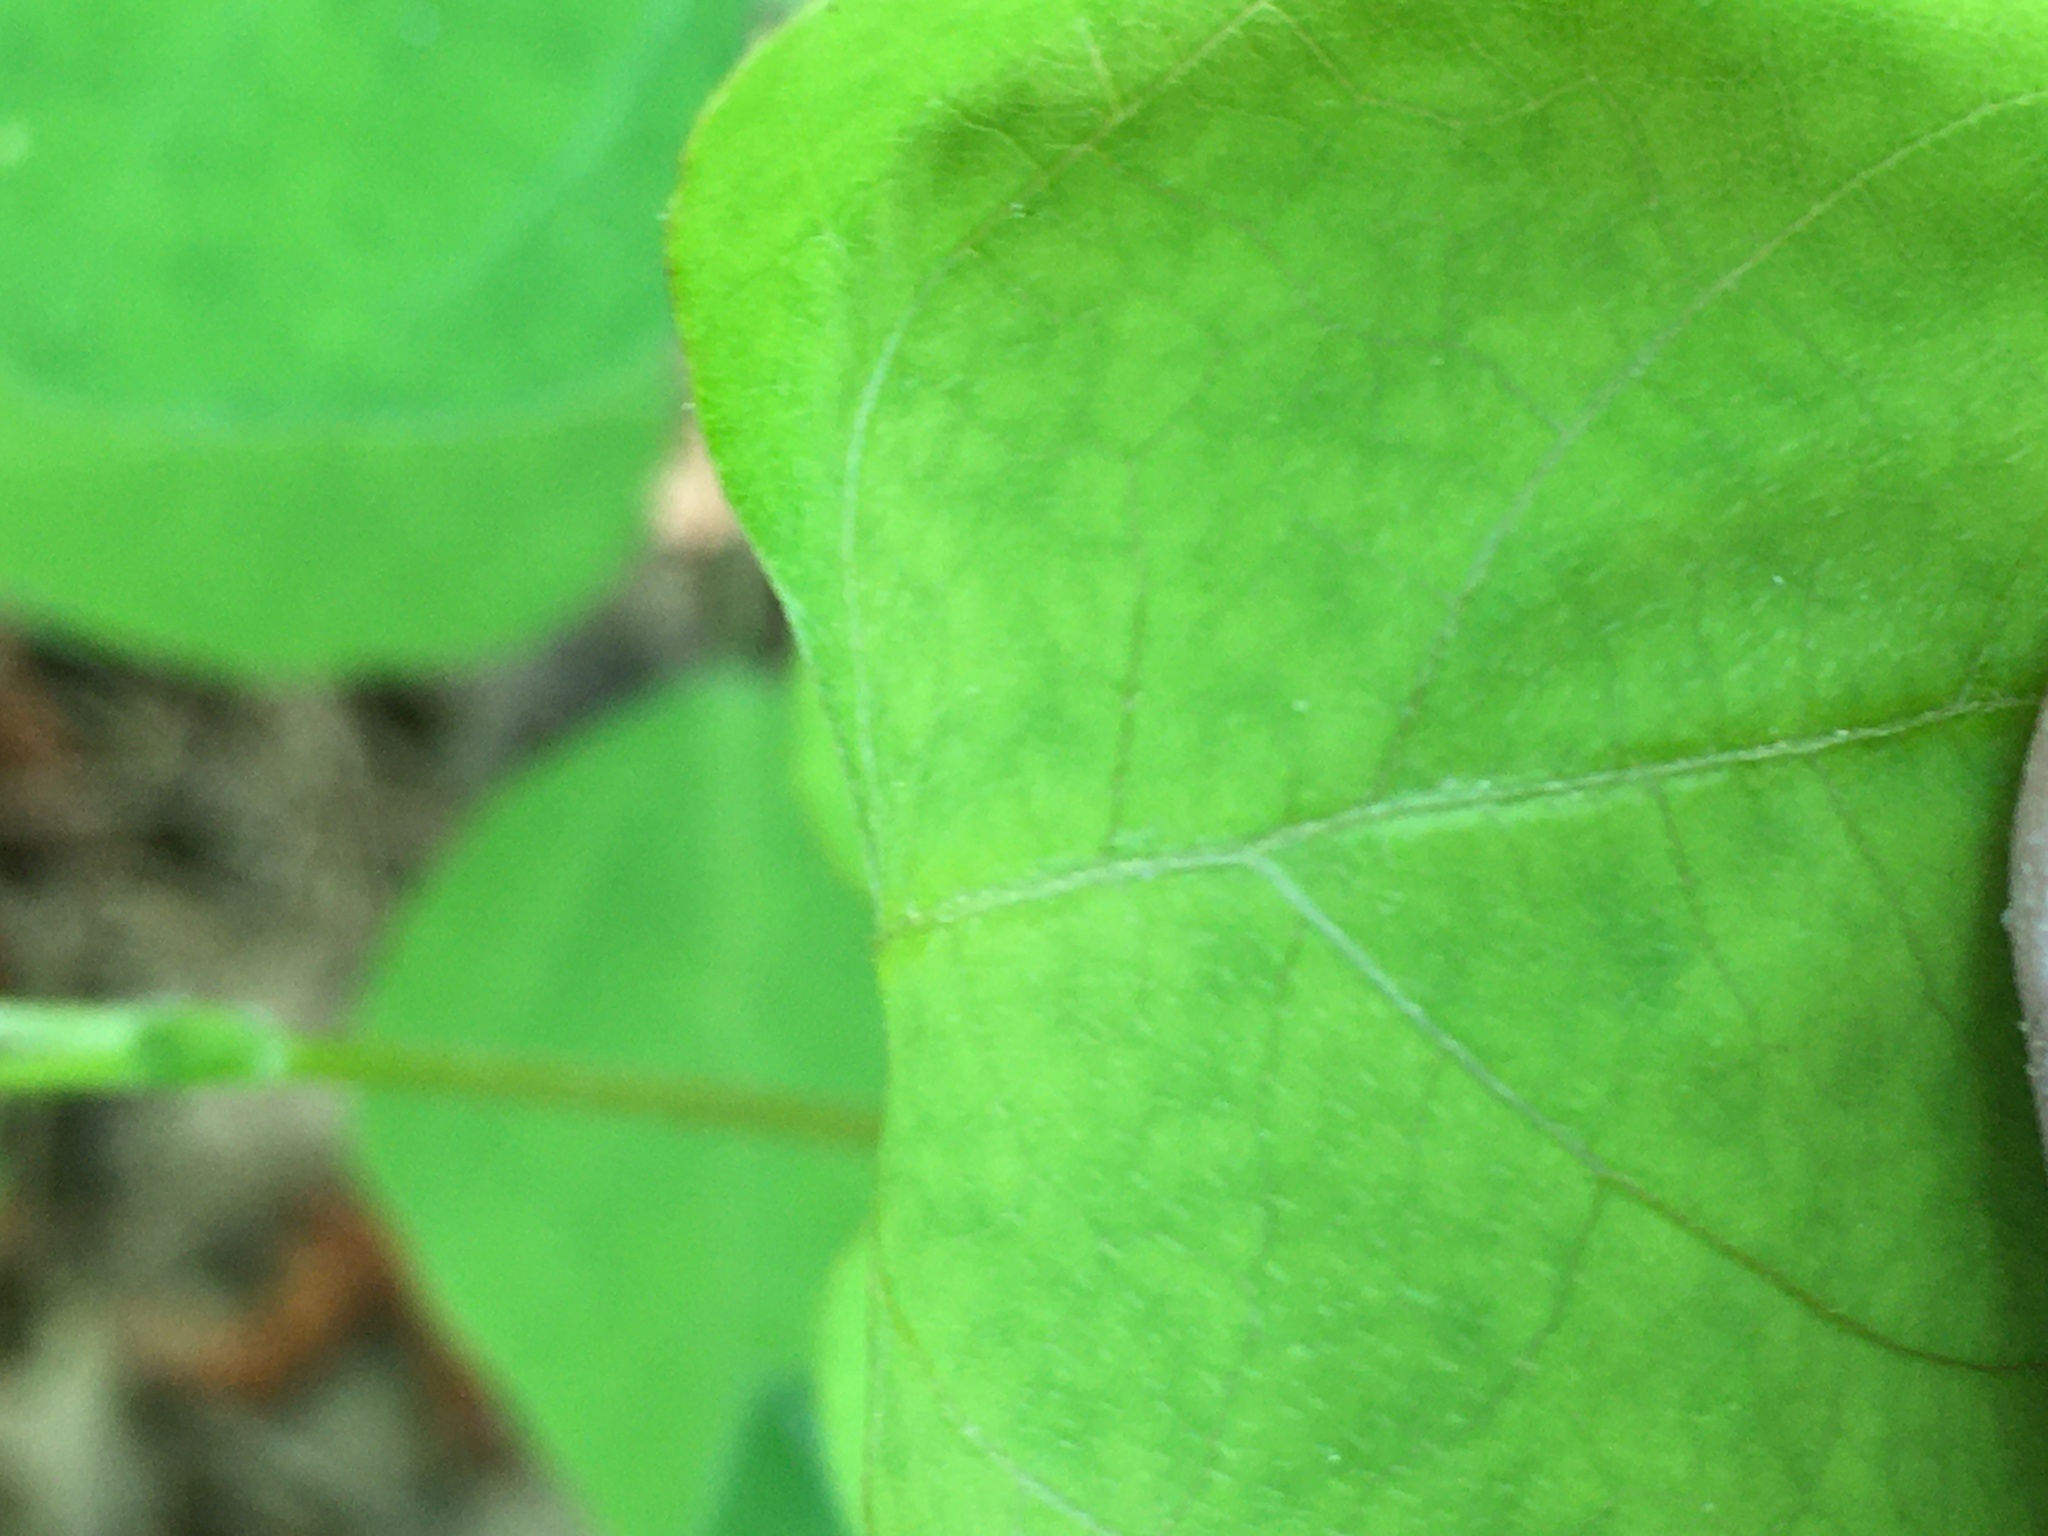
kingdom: Plantae
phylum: Tracheophyta
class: Magnoliopsida
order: Fabales
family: Fabaceae
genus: Amphicarpaea
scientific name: Amphicarpaea bracteata
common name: American hog peanut
